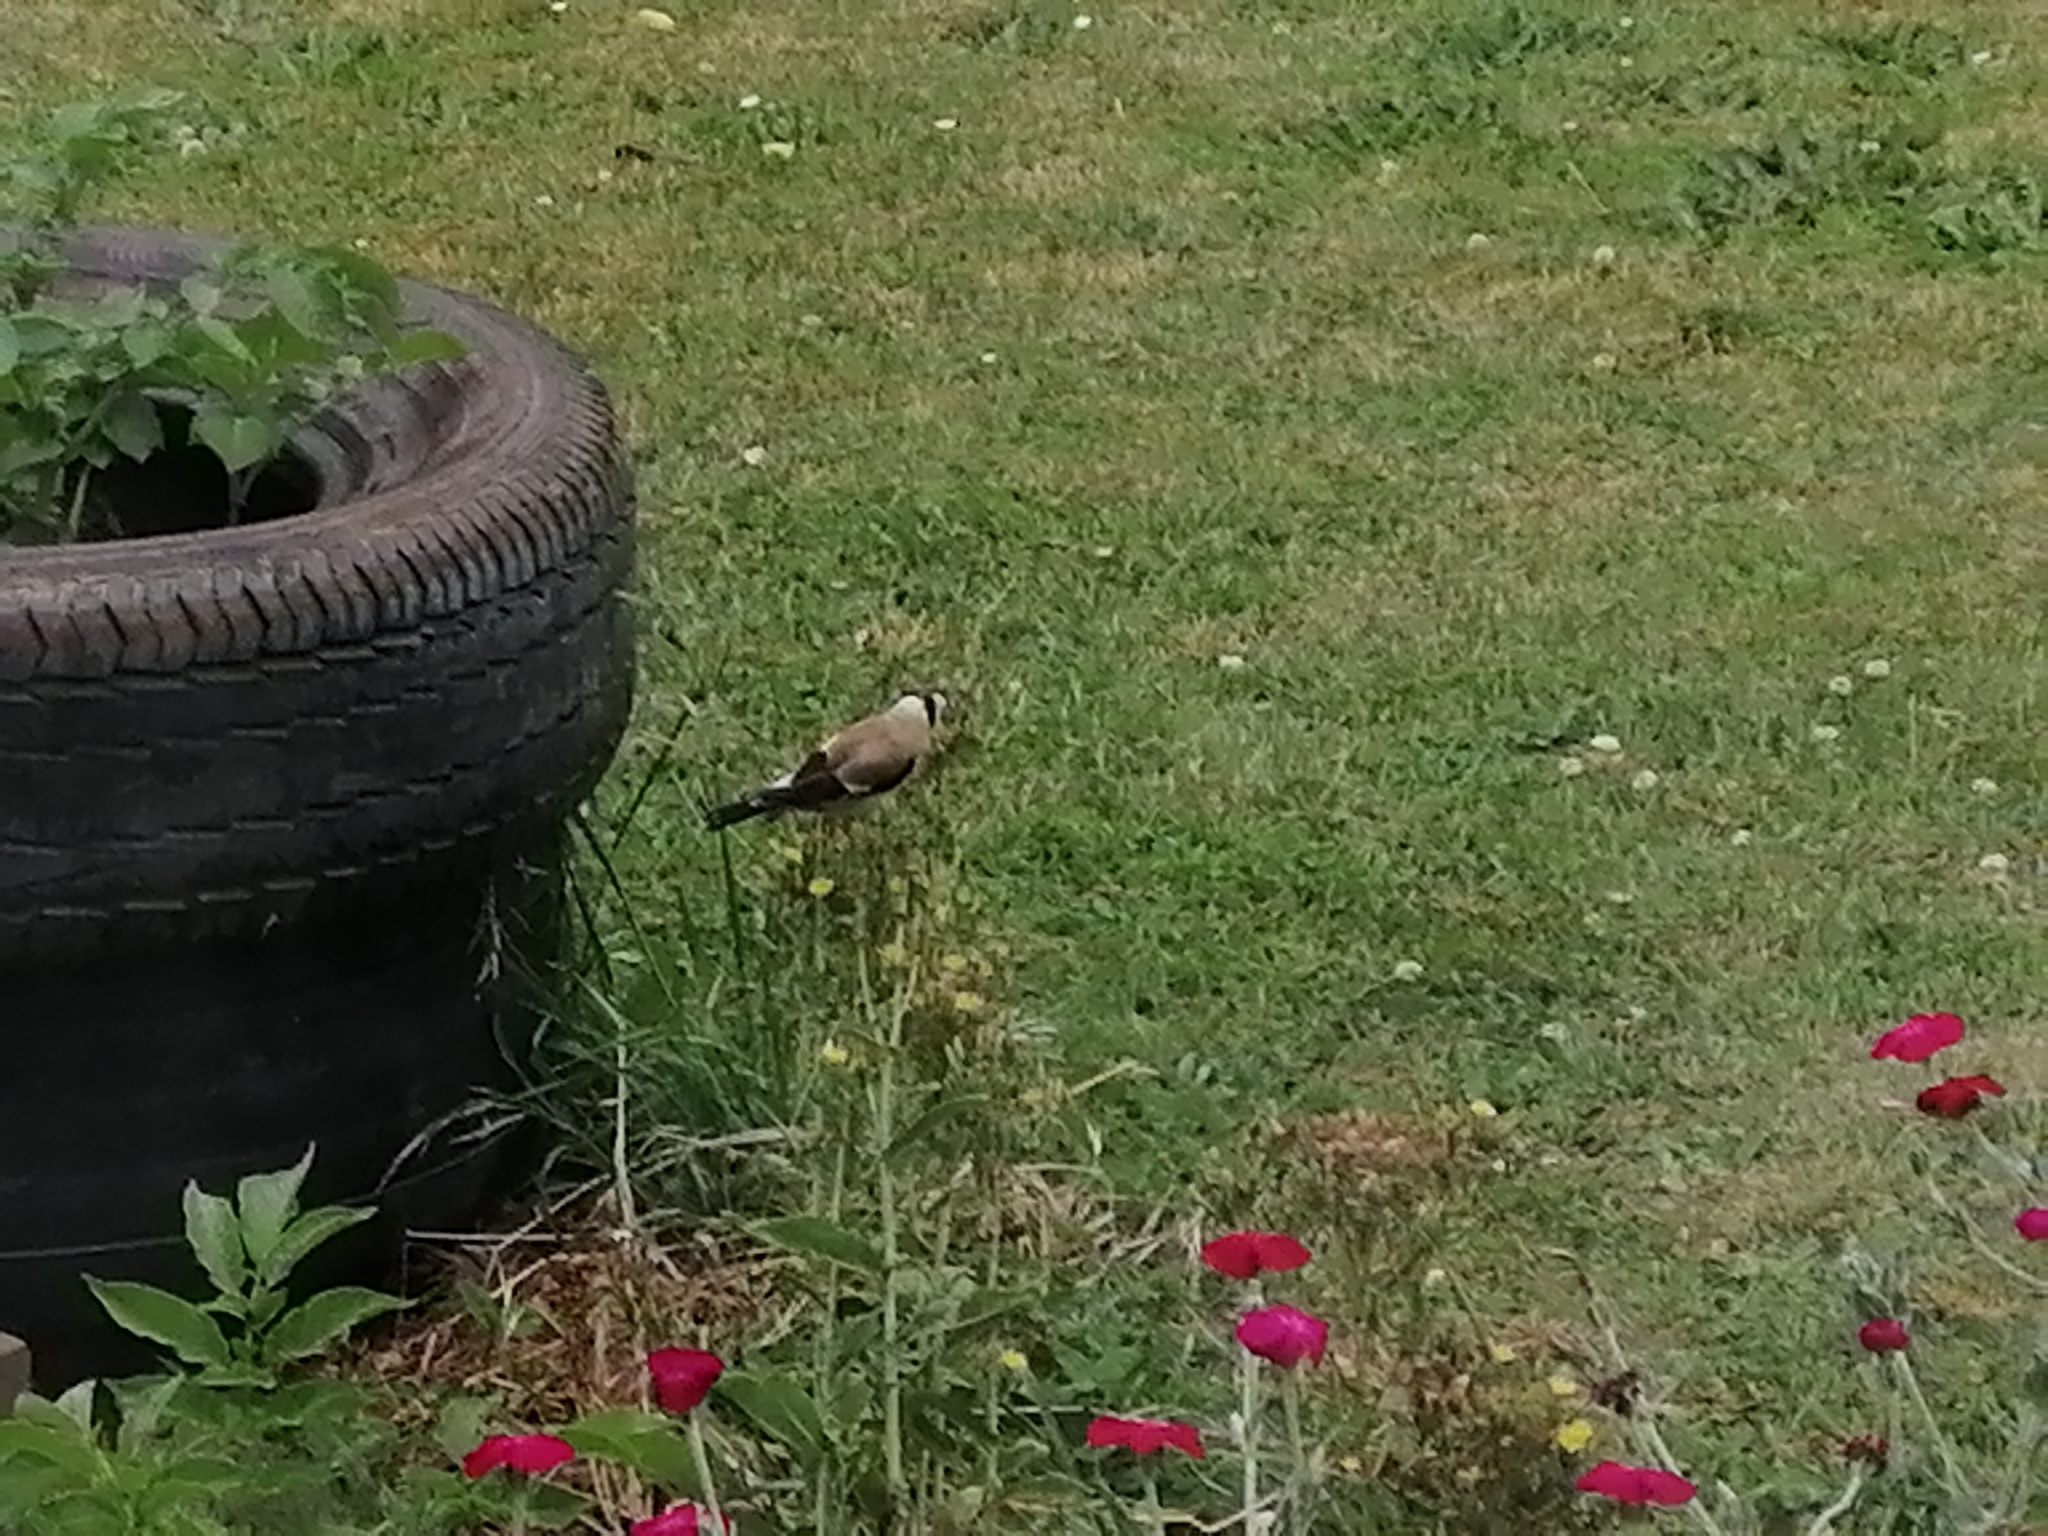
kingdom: Animalia
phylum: Chordata
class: Aves
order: Passeriformes
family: Fringillidae
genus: Carduelis
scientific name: Carduelis carduelis
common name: European goldfinch
